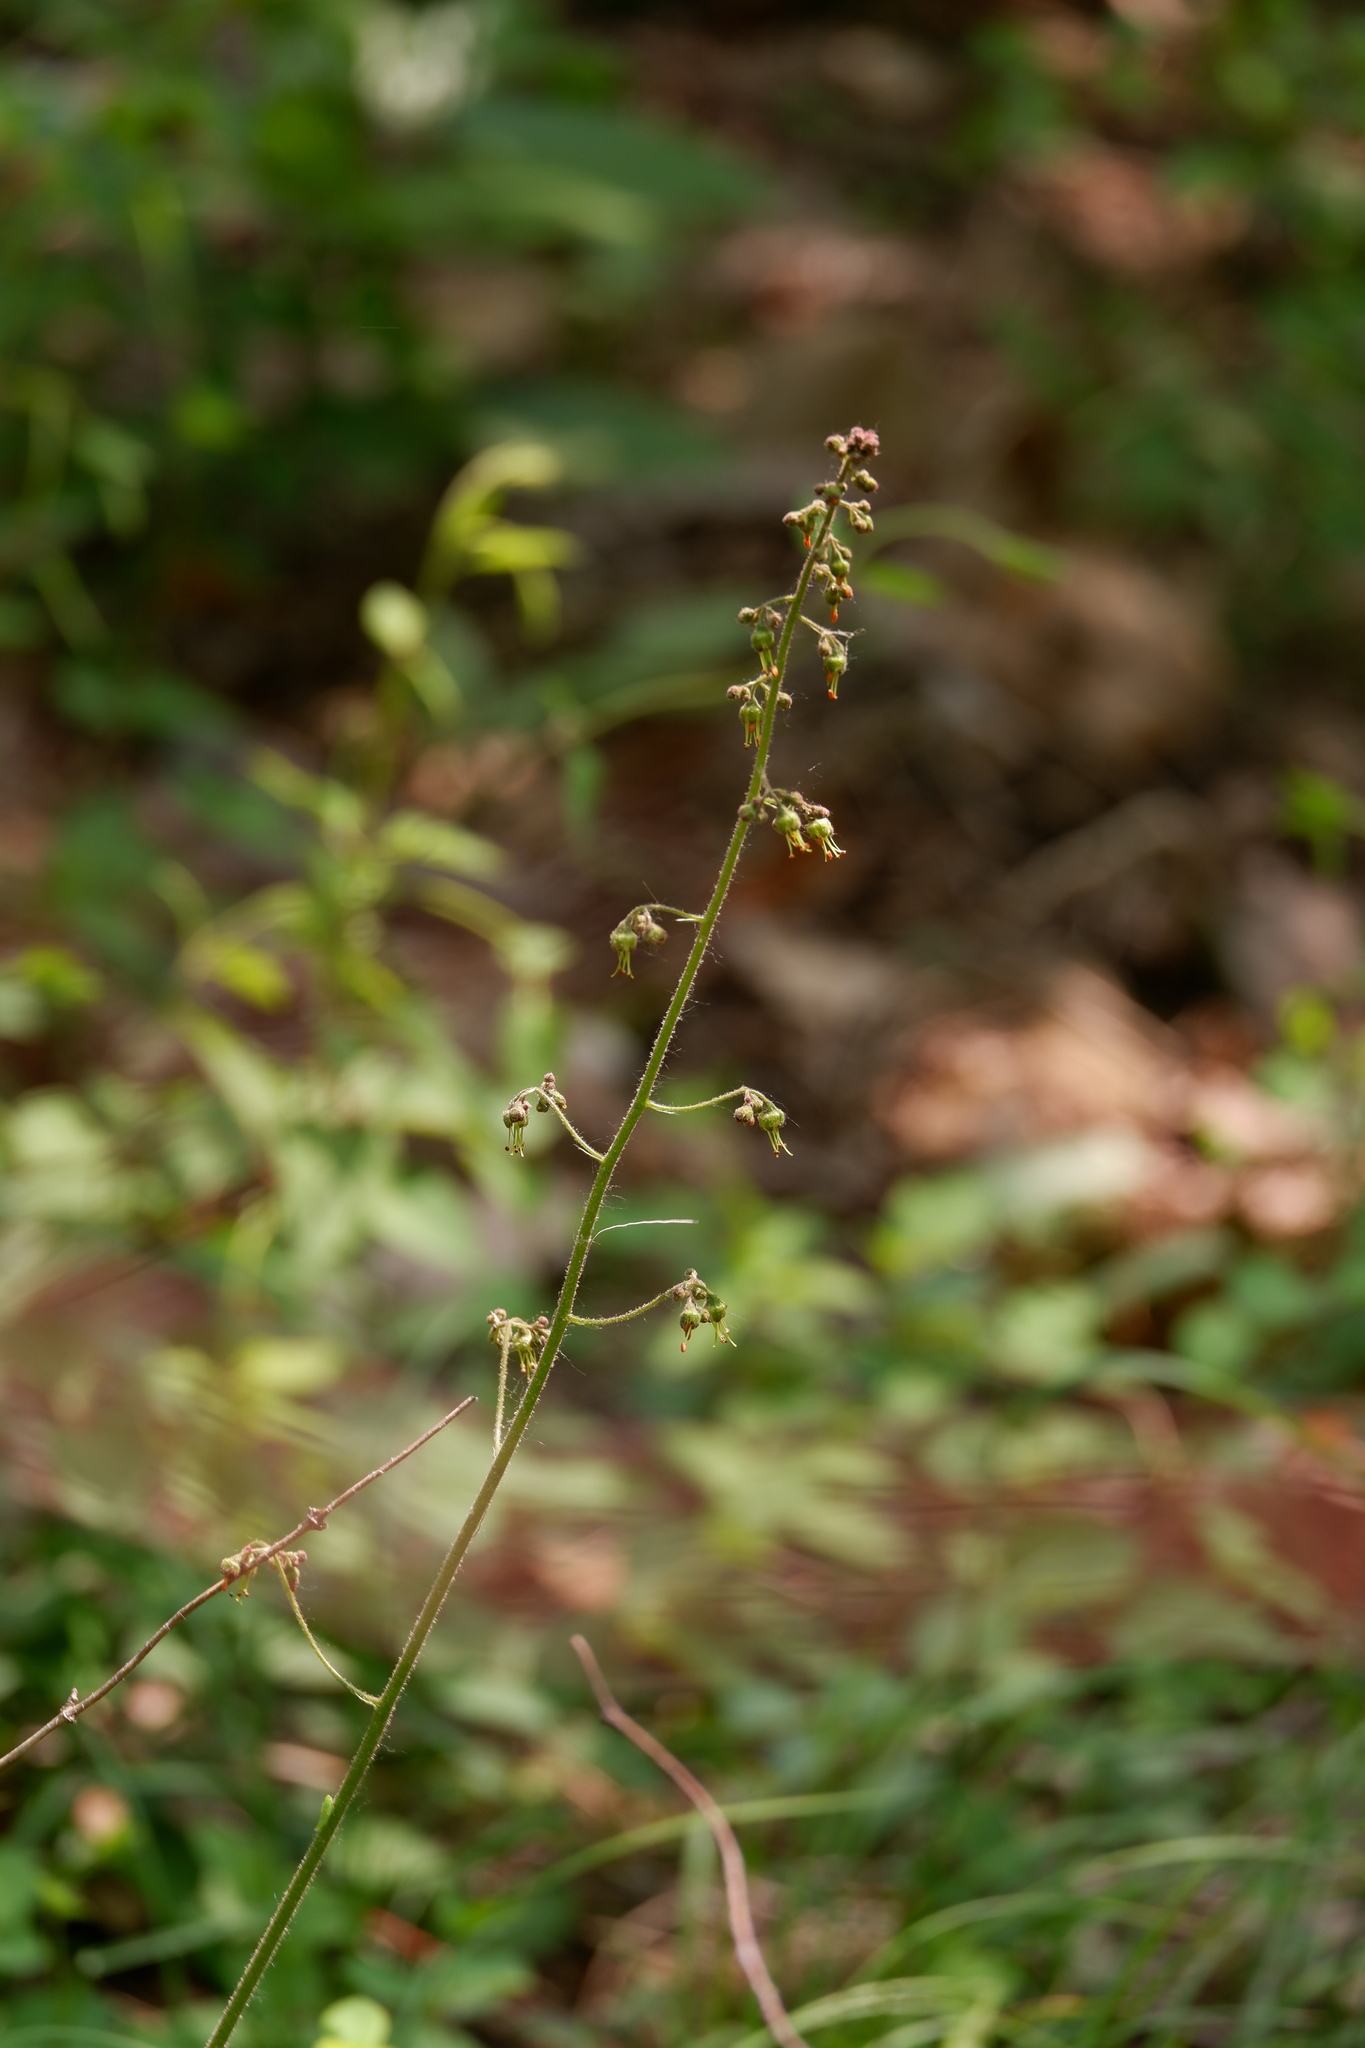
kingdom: Plantae
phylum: Tracheophyta
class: Magnoliopsida
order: Saxifragales
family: Saxifragaceae
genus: Heuchera
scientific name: Heuchera americana
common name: Alumroot
